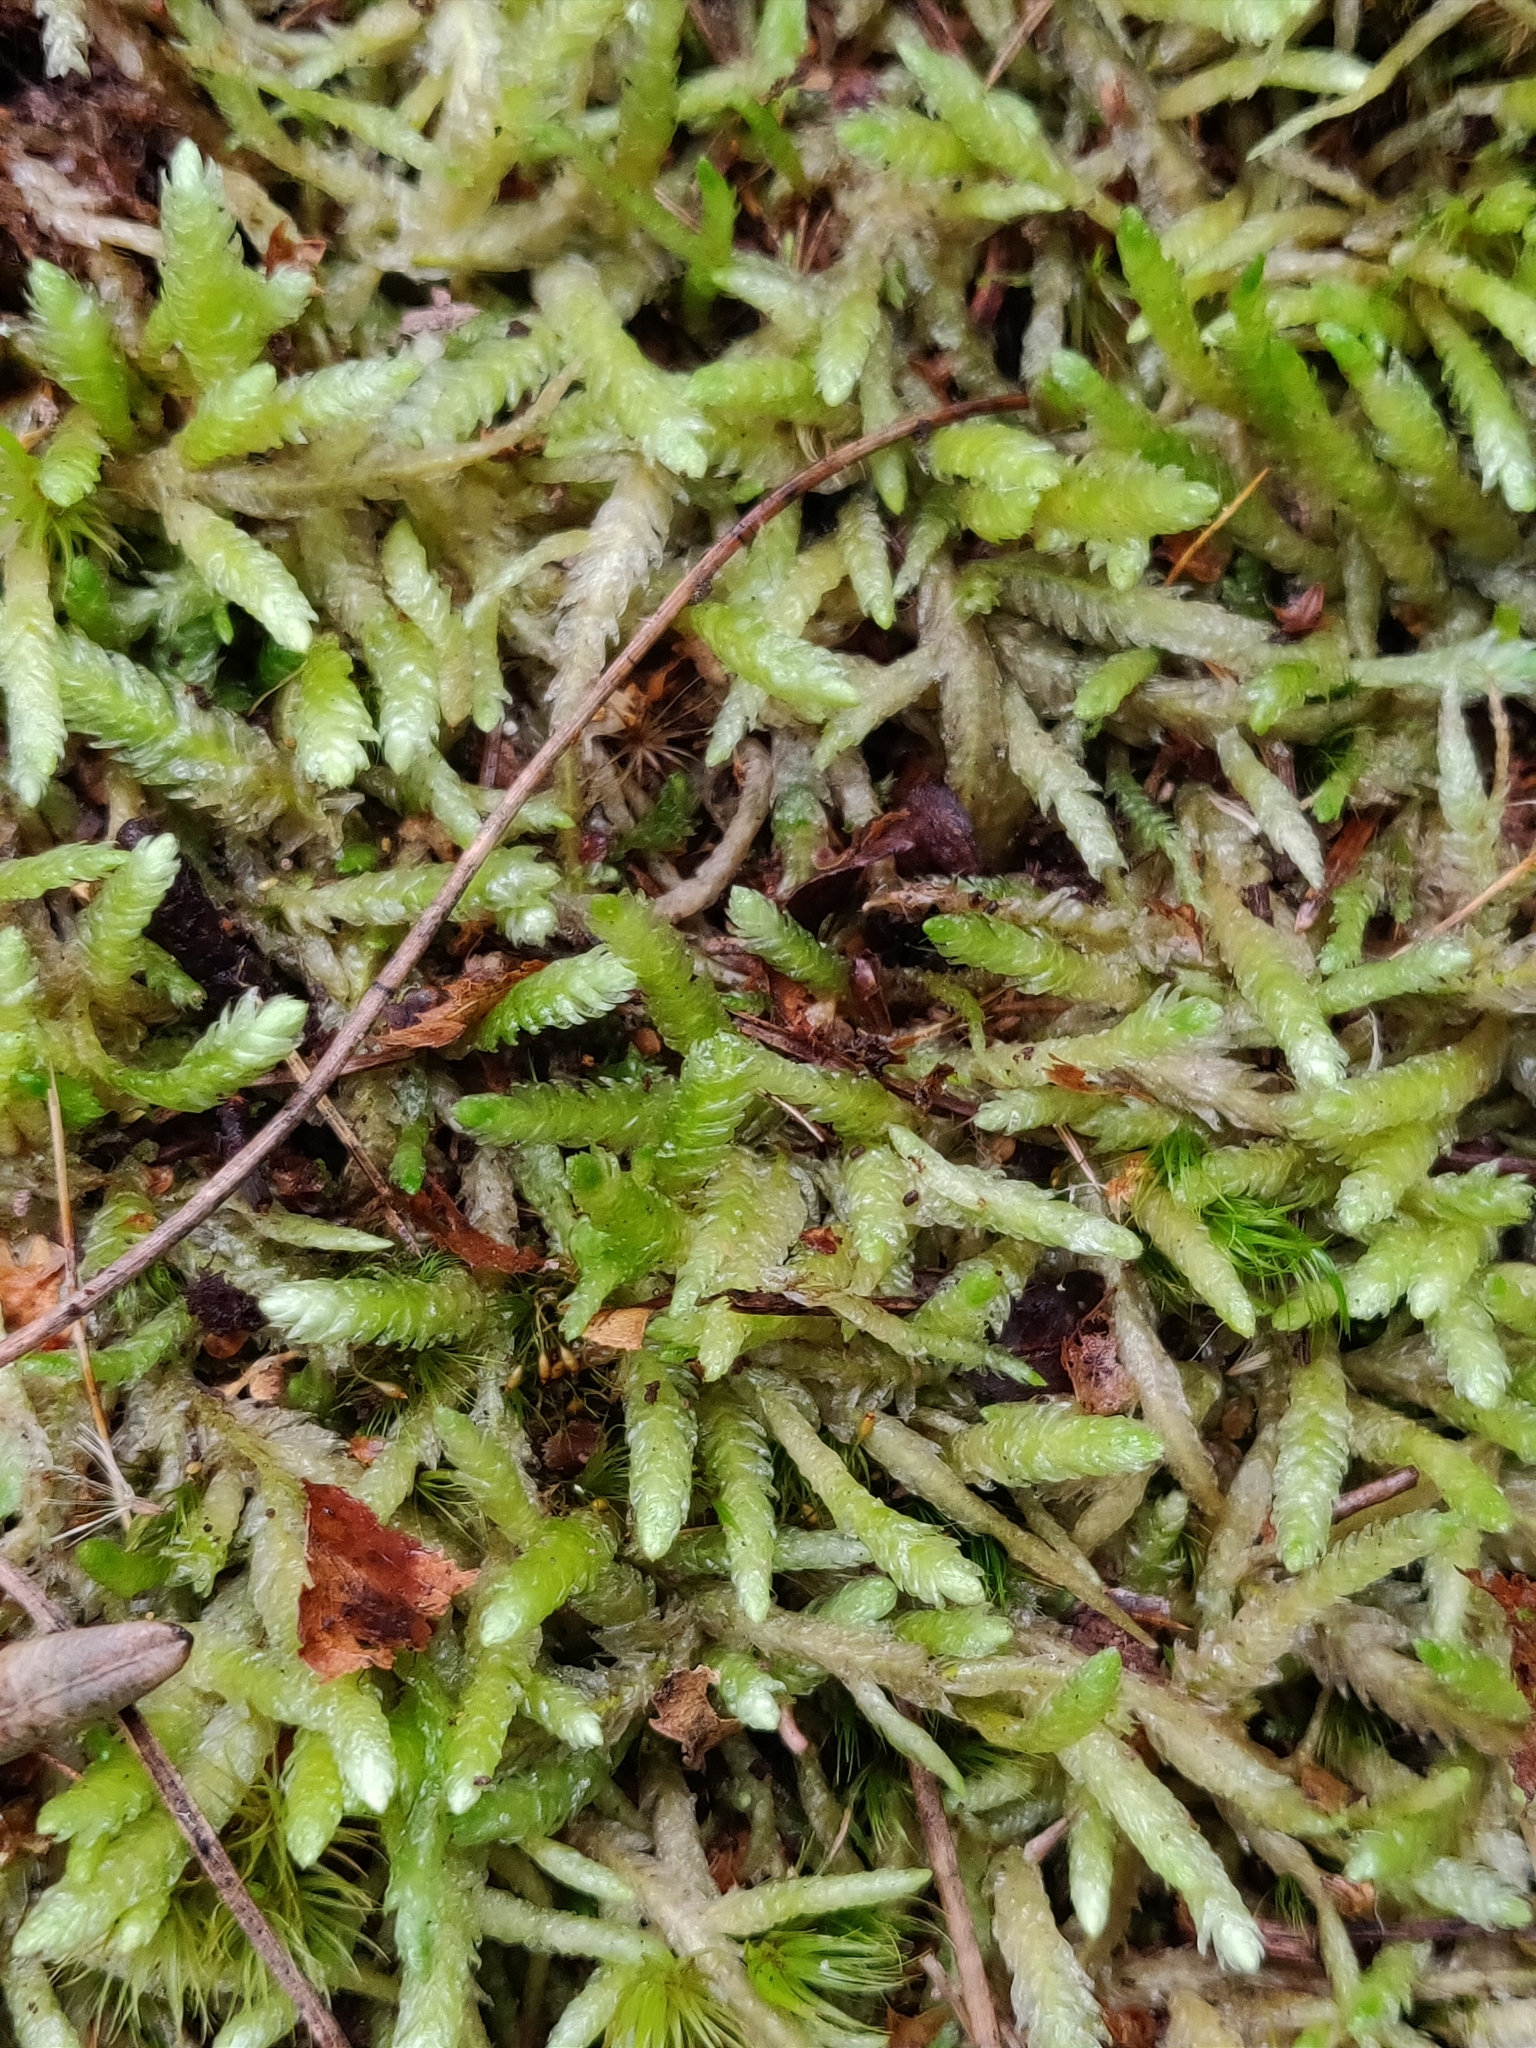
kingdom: Plantae
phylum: Bryophyta
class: Bryopsida
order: Hypnales
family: Plagiotheciaceae
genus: Plagiothecium
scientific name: Plagiothecium undulatum
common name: Waved silk-moss
